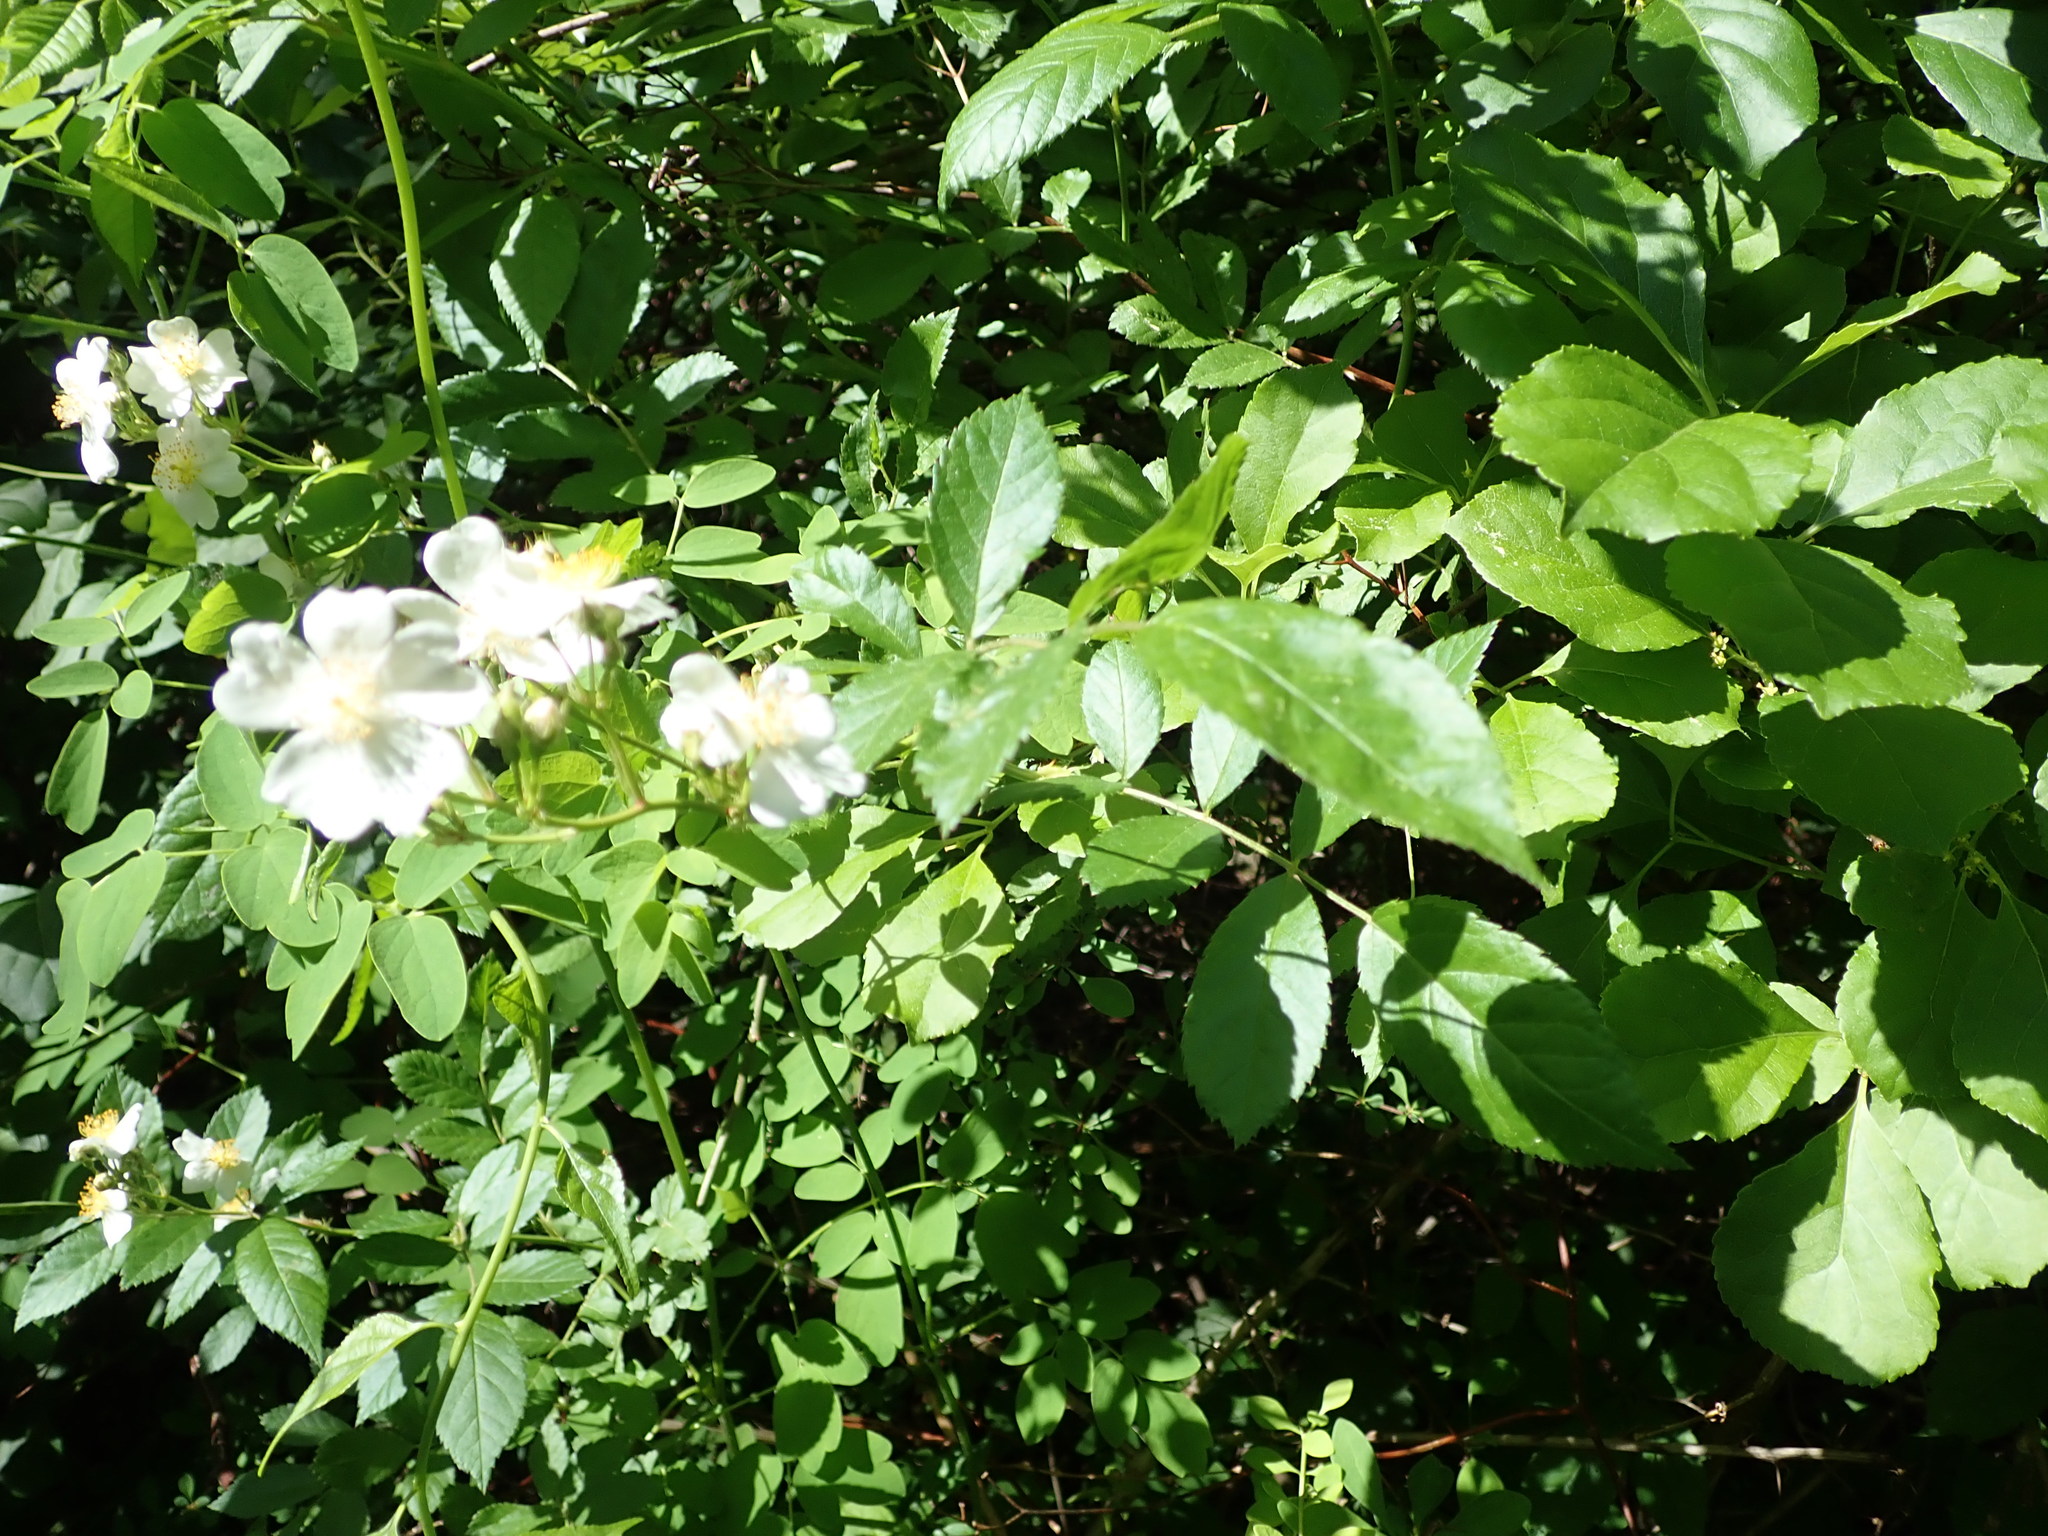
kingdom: Plantae
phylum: Tracheophyta
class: Magnoliopsida
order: Rosales
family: Rosaceae
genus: Rosa
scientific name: Rosa multiflora
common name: Multiflora rose
